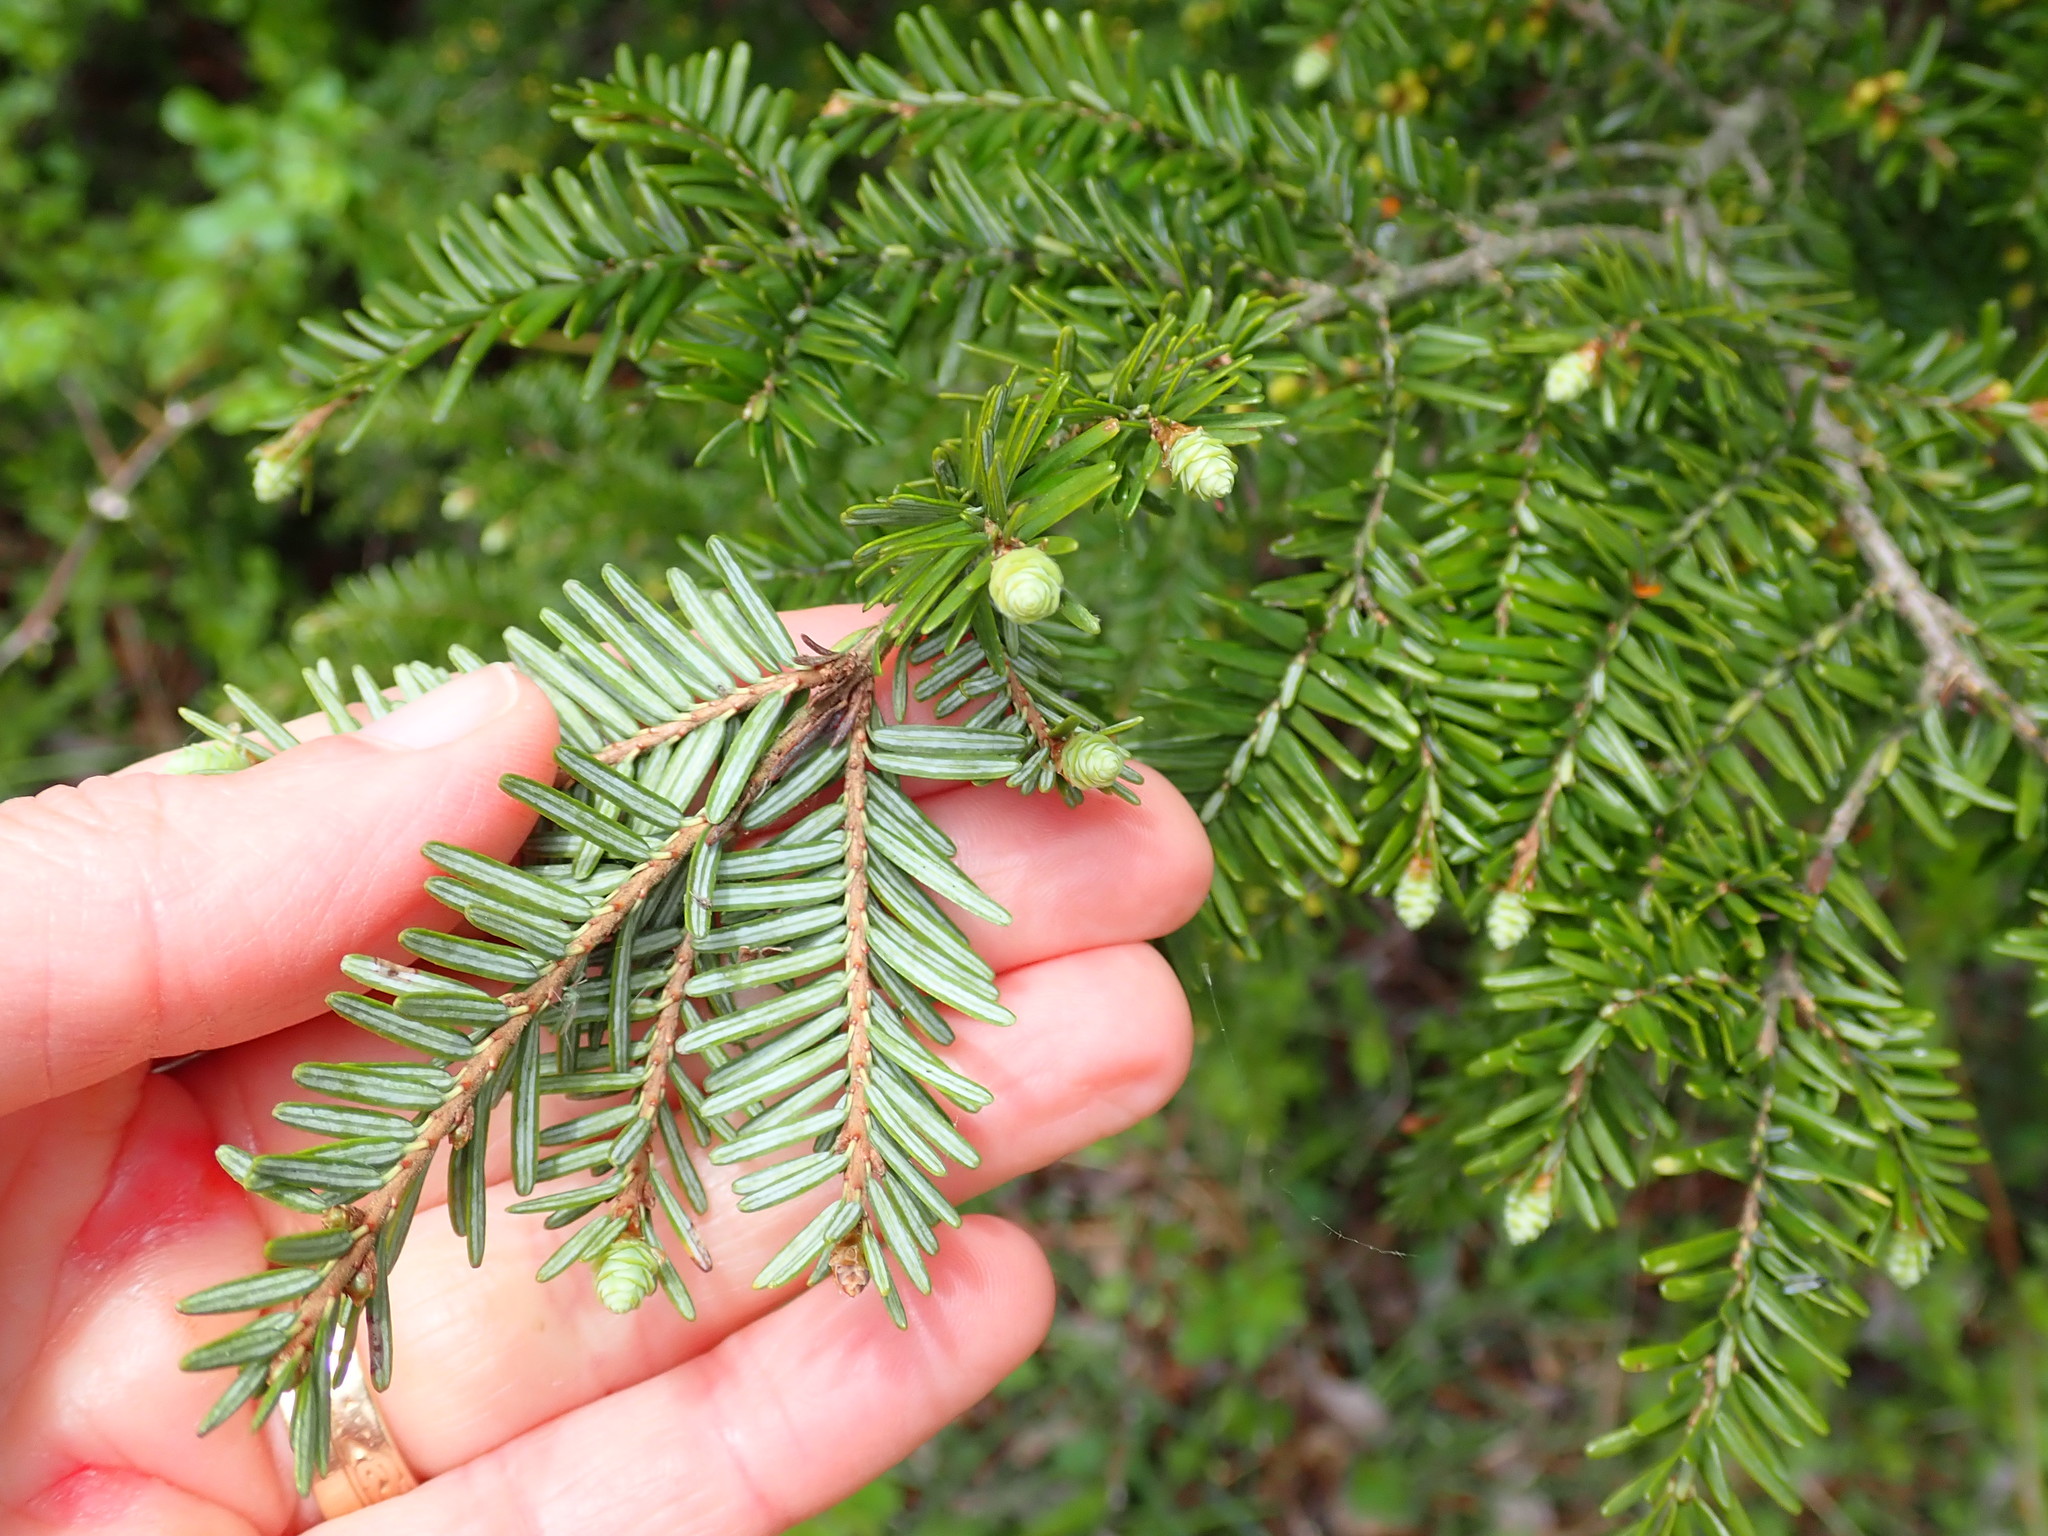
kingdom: Plantae
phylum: Tracheophyta
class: Pinopsida
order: Pinales
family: Pinaceae
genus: Tsuga
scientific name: Tsuga canadensis
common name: Eastern hemlock
